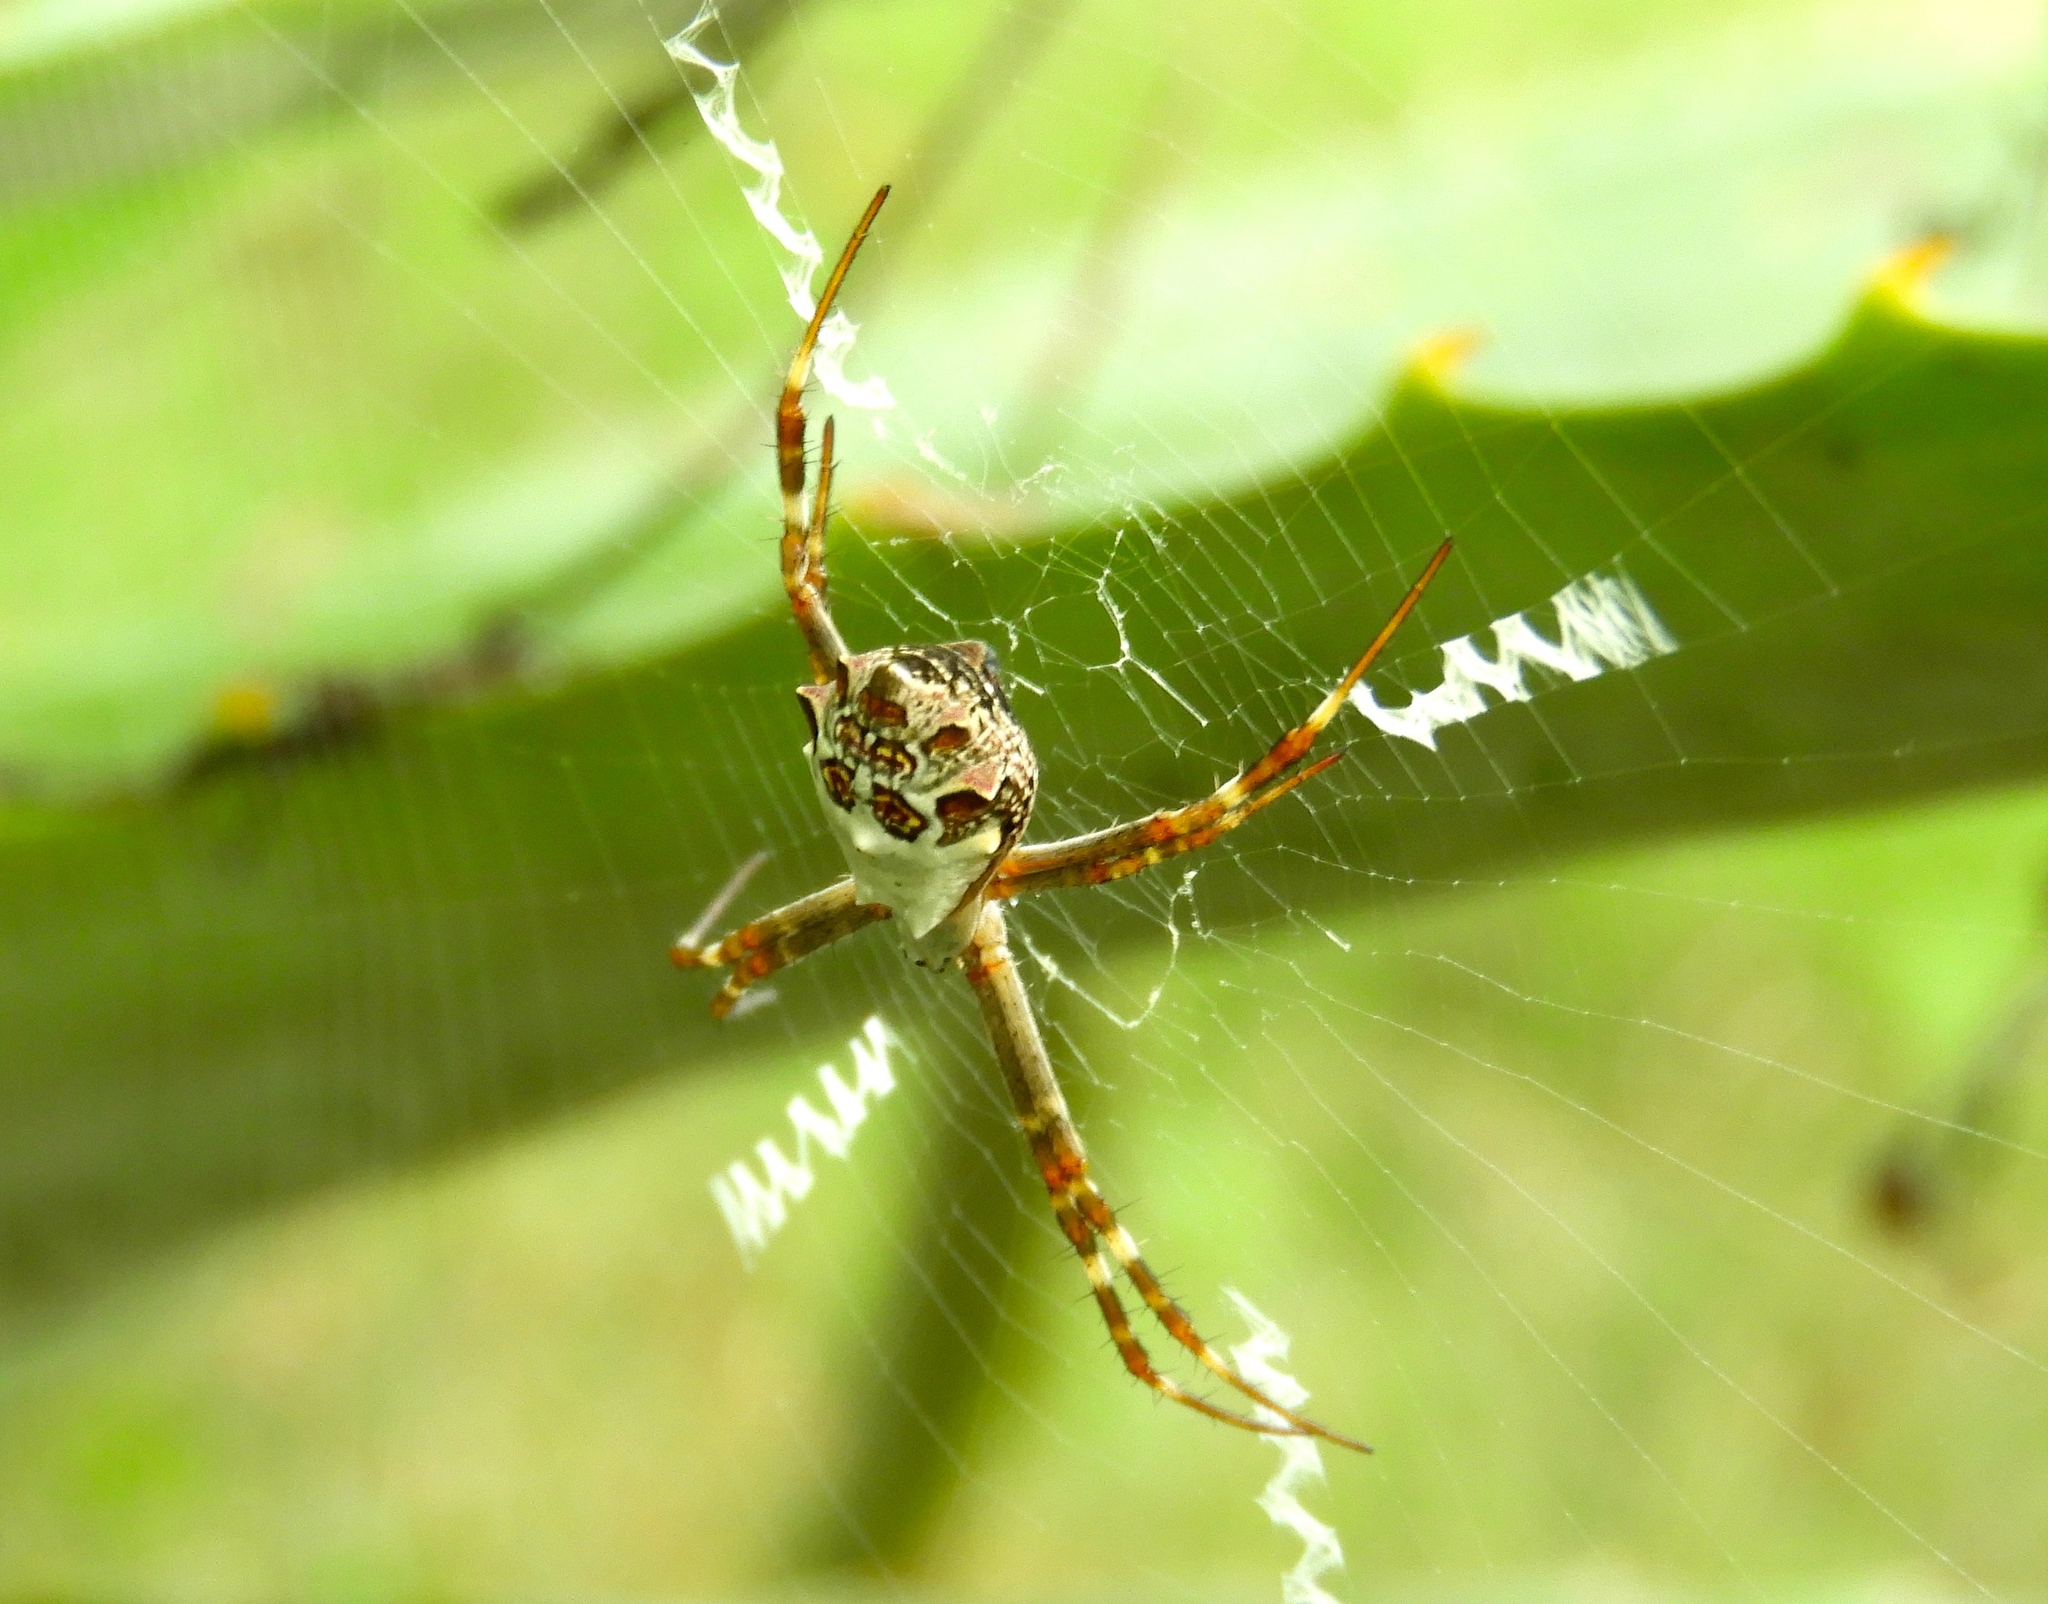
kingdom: Animalia
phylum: Arthropoda
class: Arachnida
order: Araneae
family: Araneidae
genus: Argiope
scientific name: Argiope argentata
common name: Orb weavers
